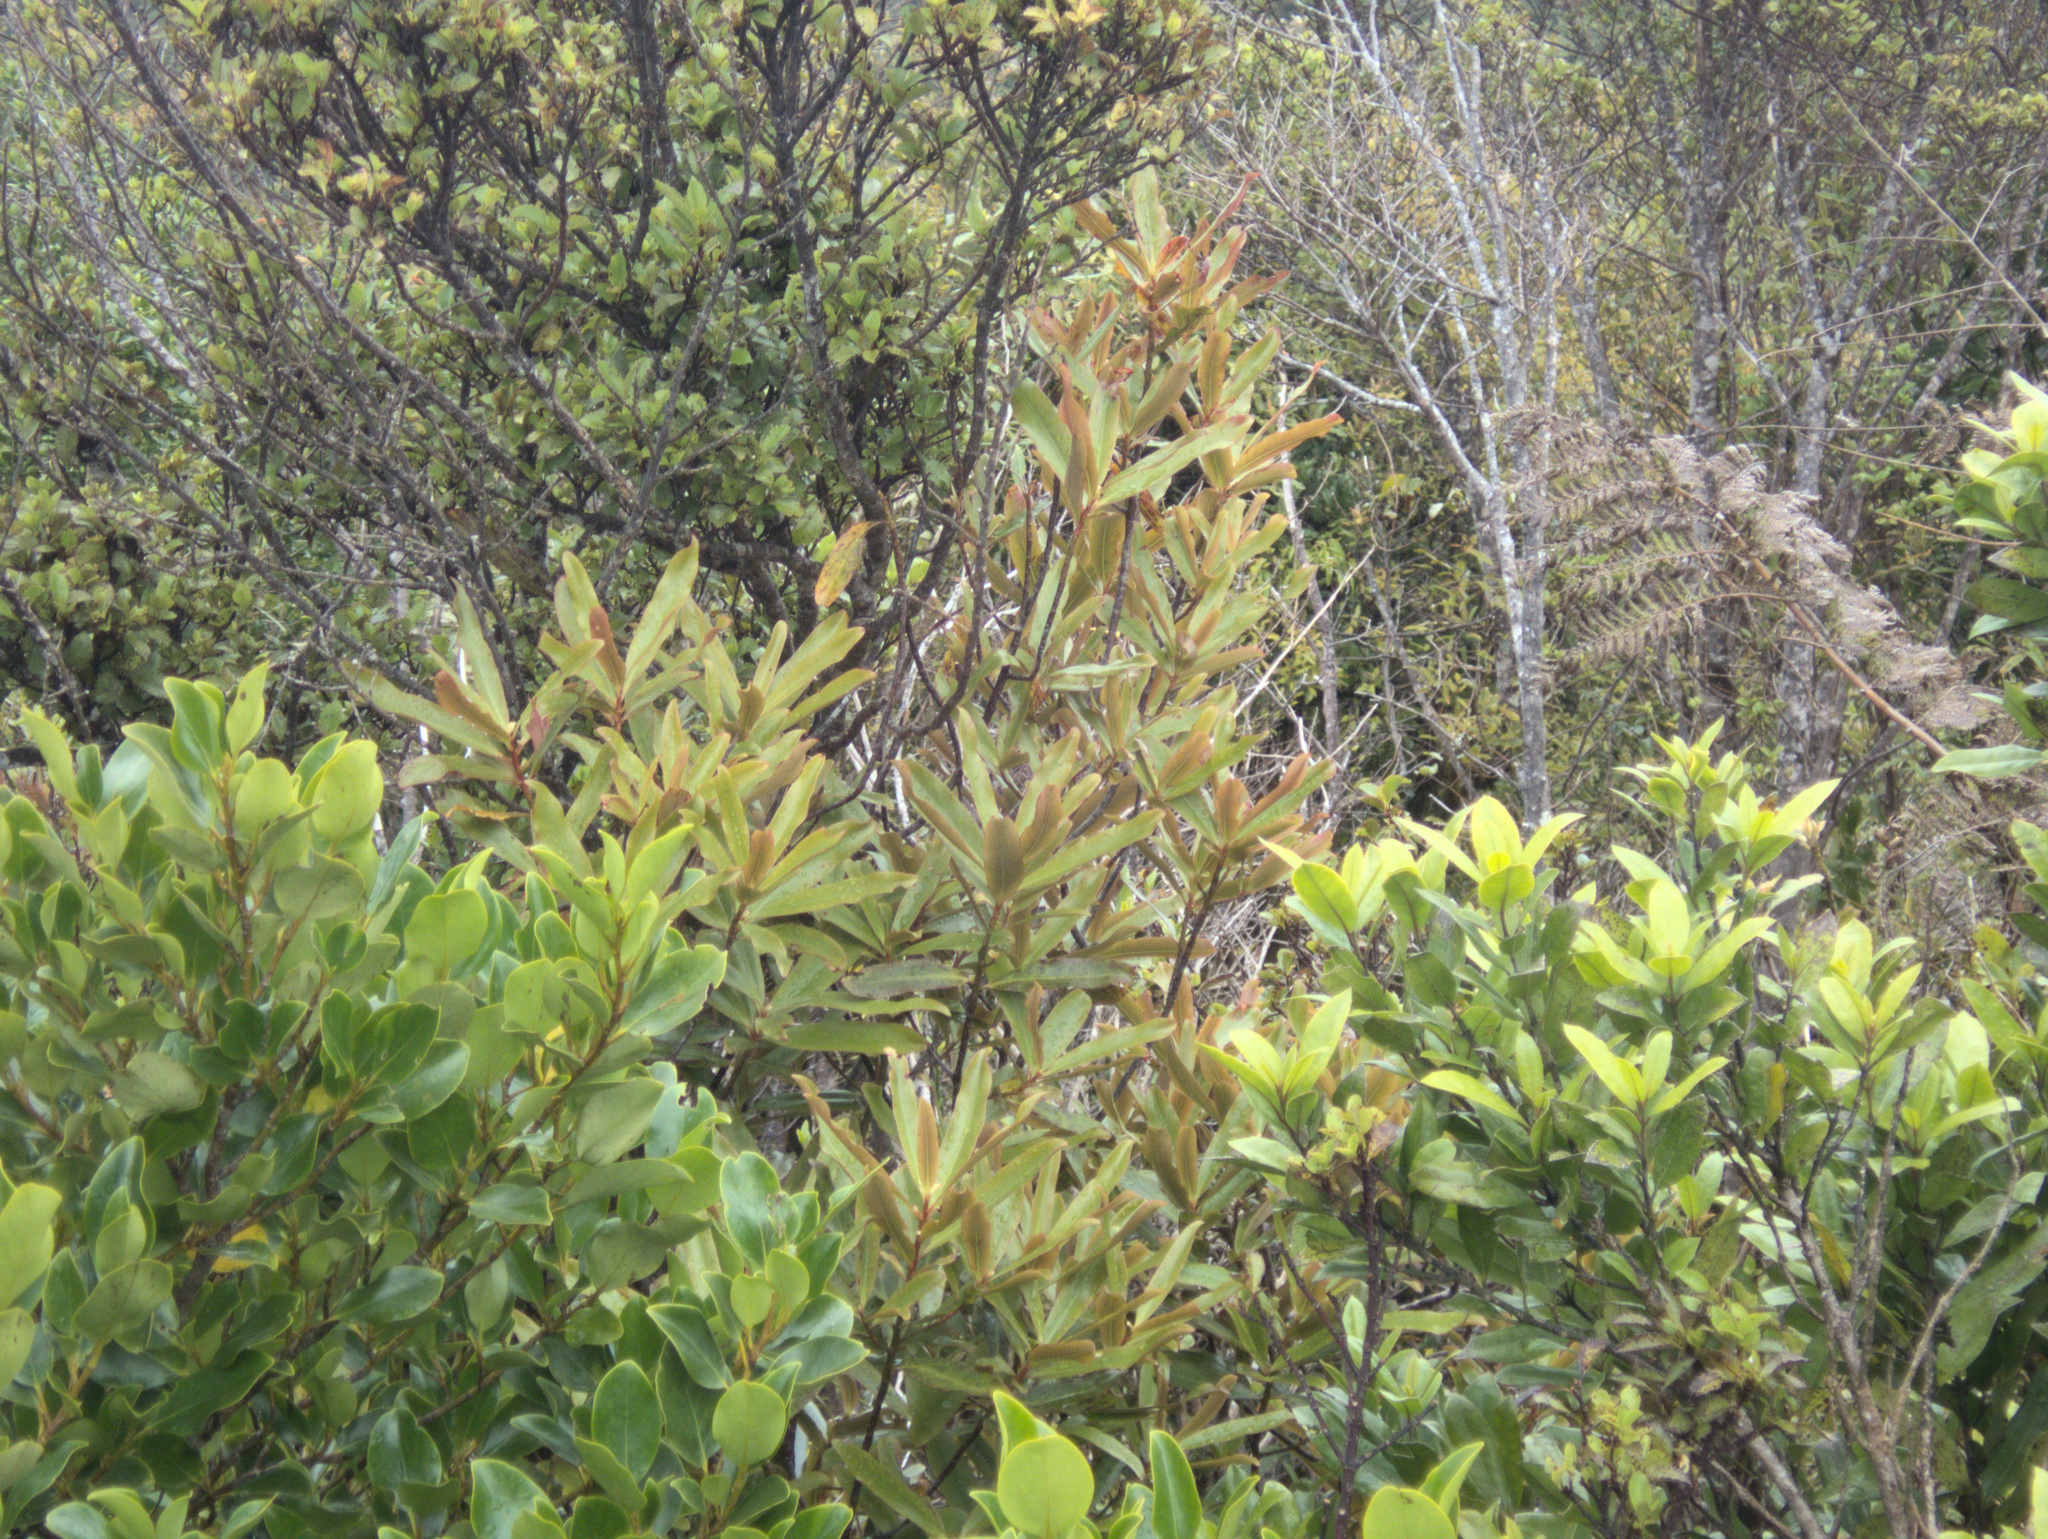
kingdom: Plantae
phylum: Tracheophyta
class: Magnoliopsida
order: Ericales
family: Primulaceae
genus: Myrsine
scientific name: Myrsine salicina
